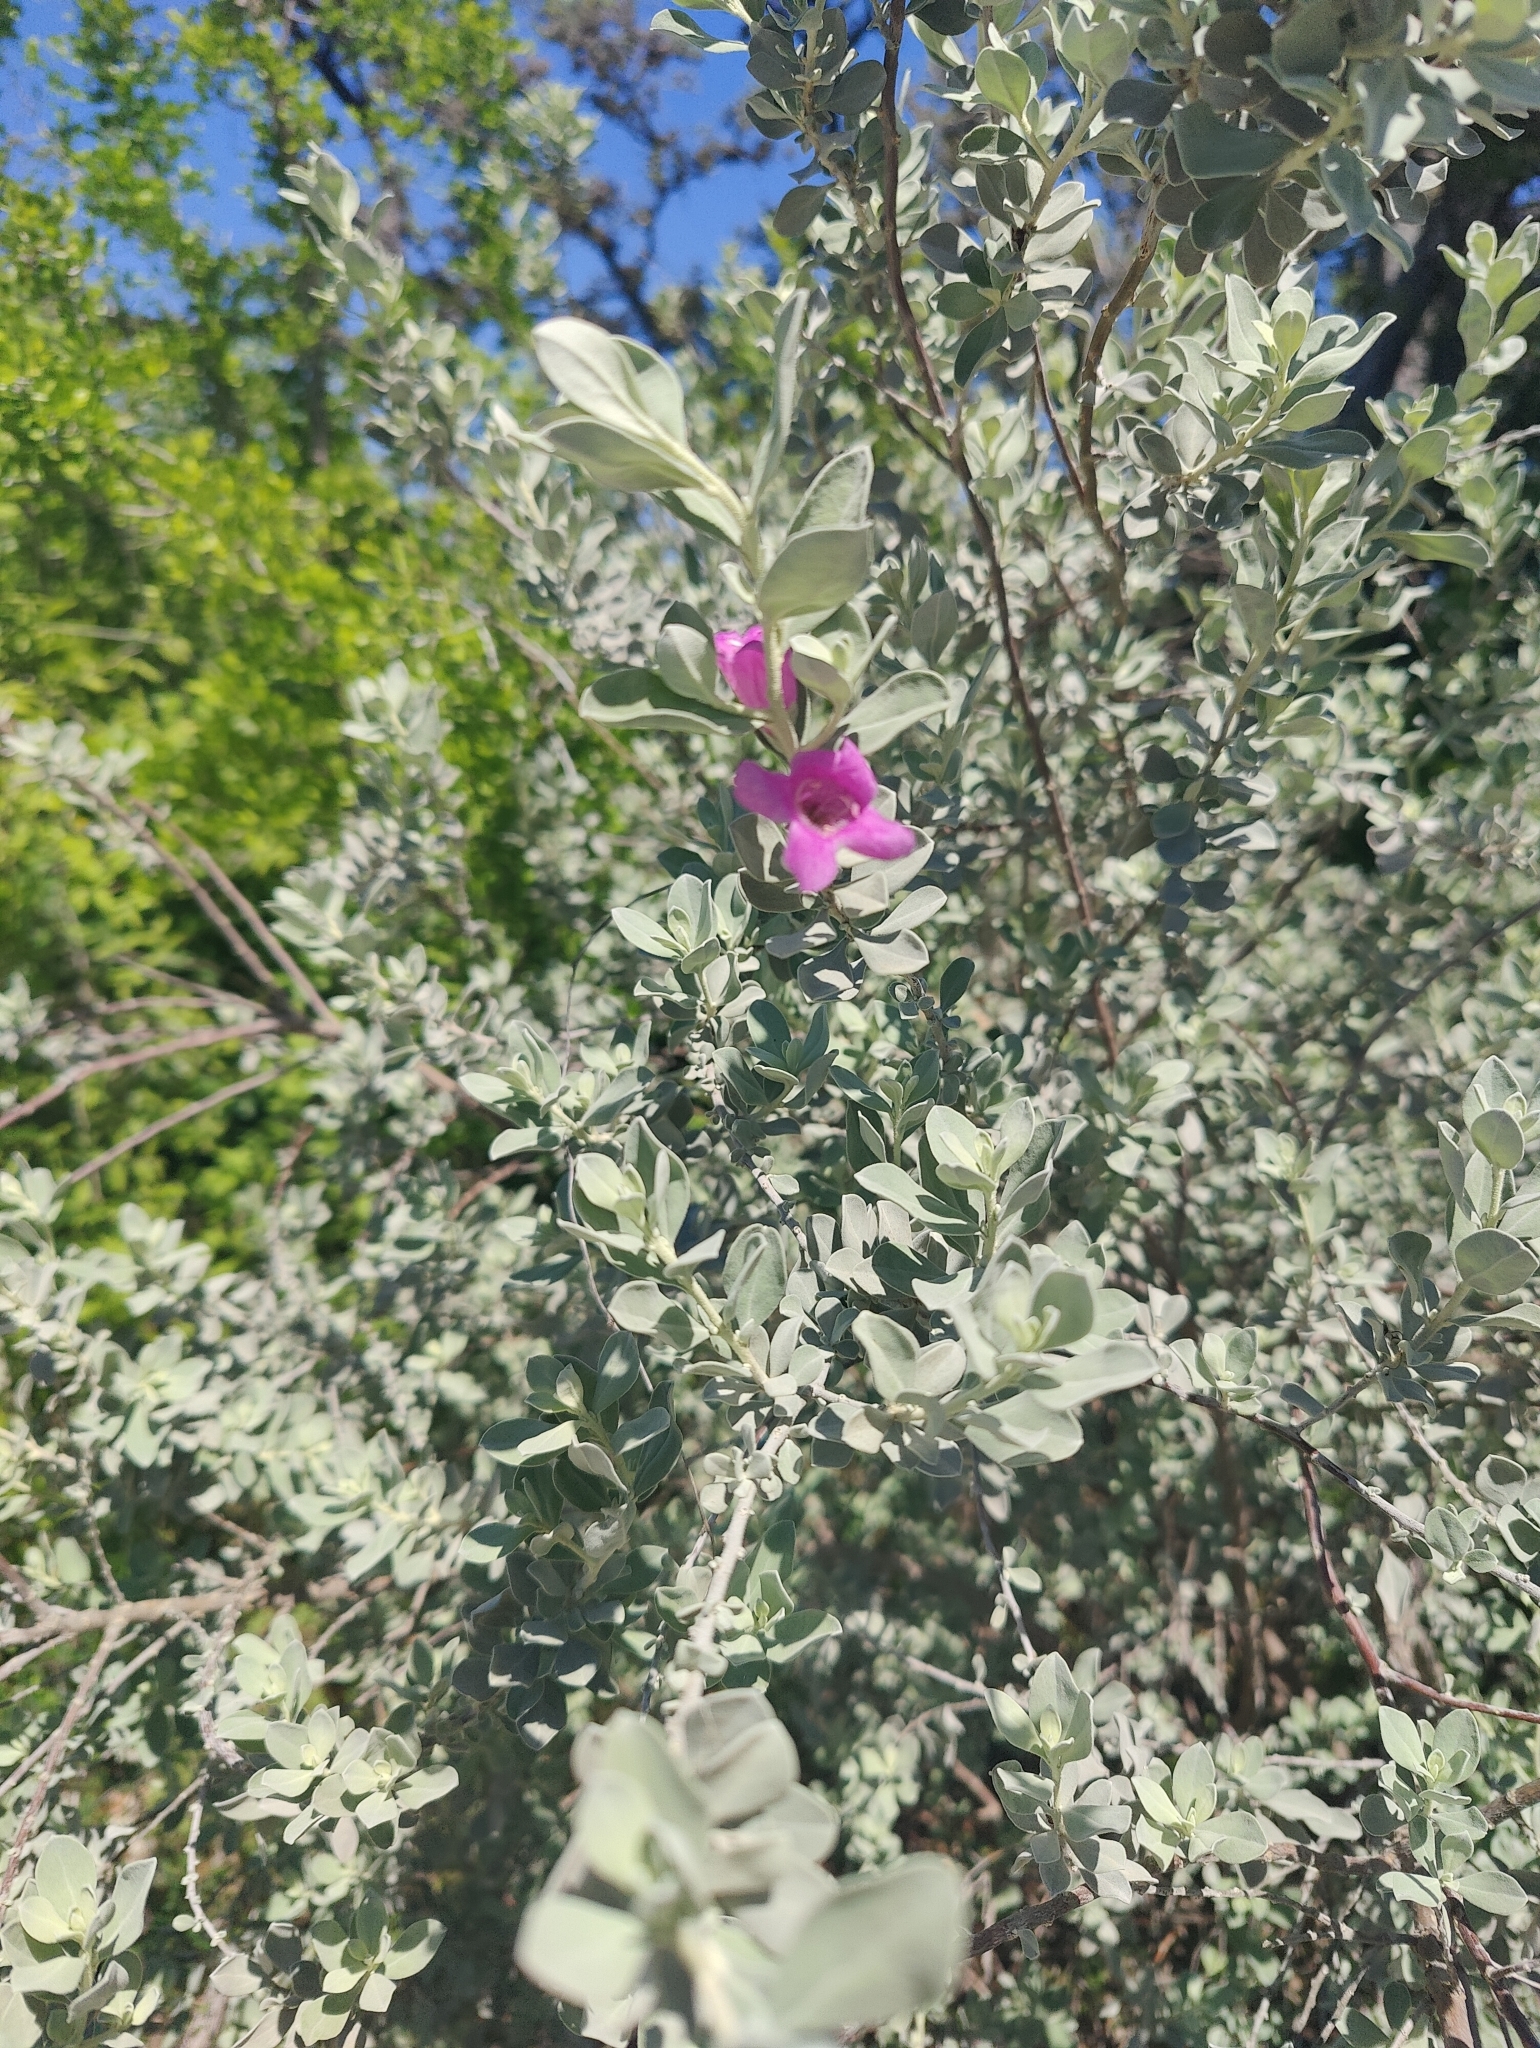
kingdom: Plantae
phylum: Tracheophyta
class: Magnoliopsida
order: Lamiales
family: Scrophulariaceae
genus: Leucophyllum
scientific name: Leucophyllum frutescens
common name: Texas silverleaf
